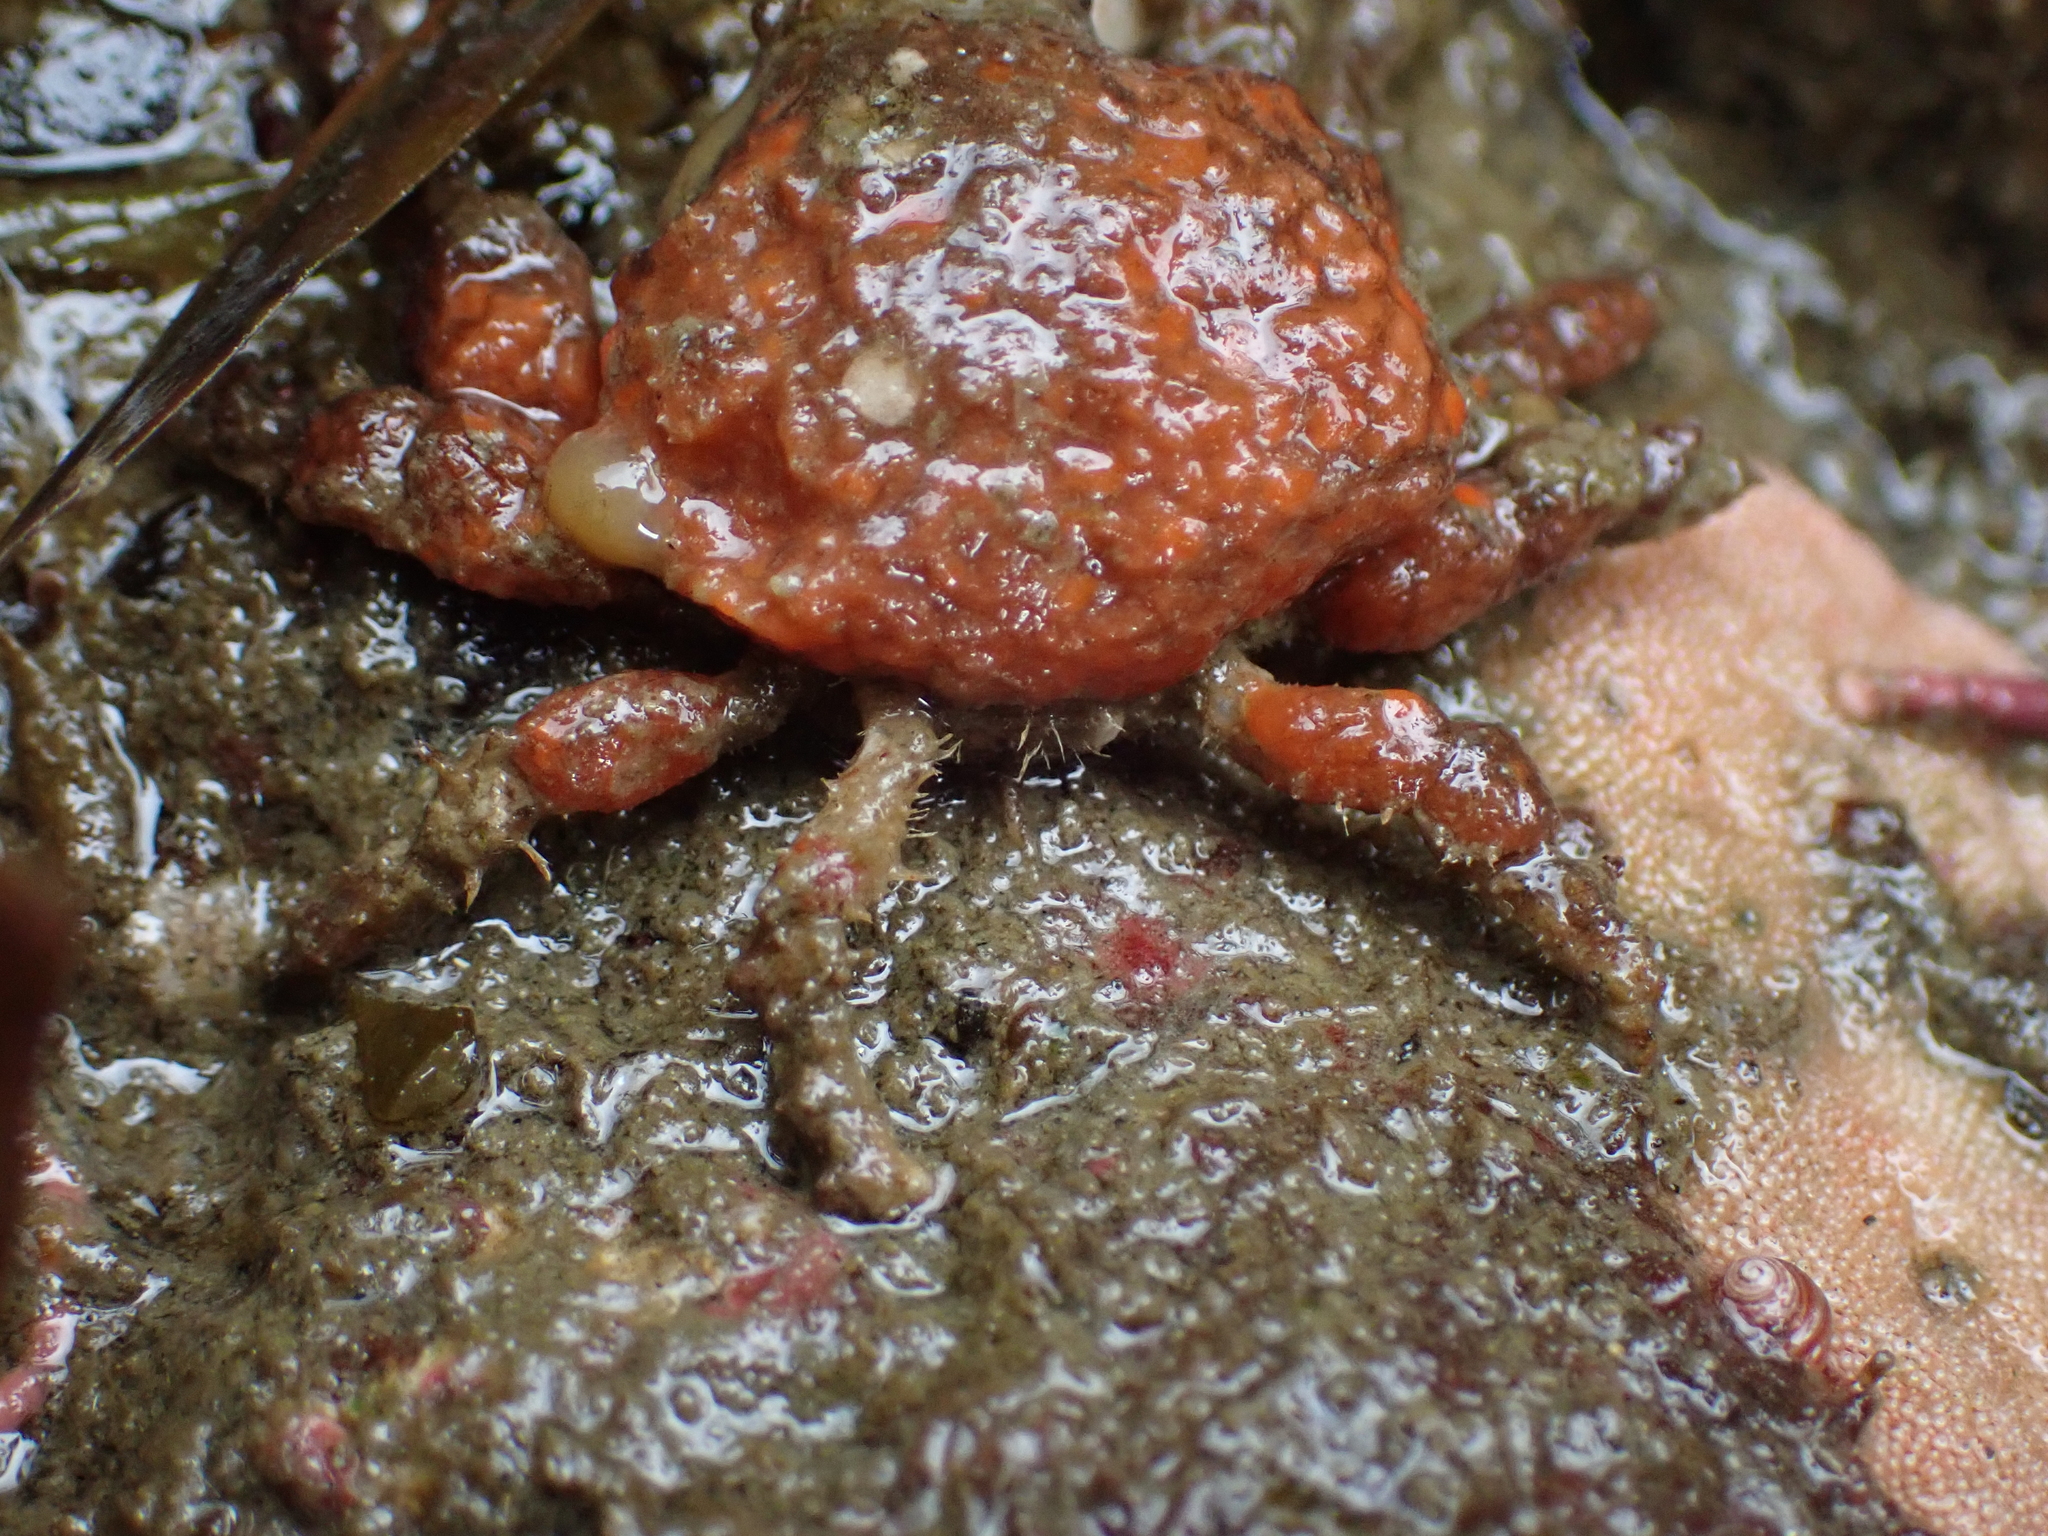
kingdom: Animalia
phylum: Arthropoda
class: Malacostraca
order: Decapoda
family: Epialtidae
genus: Scyra
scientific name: Scyra acutifrons
